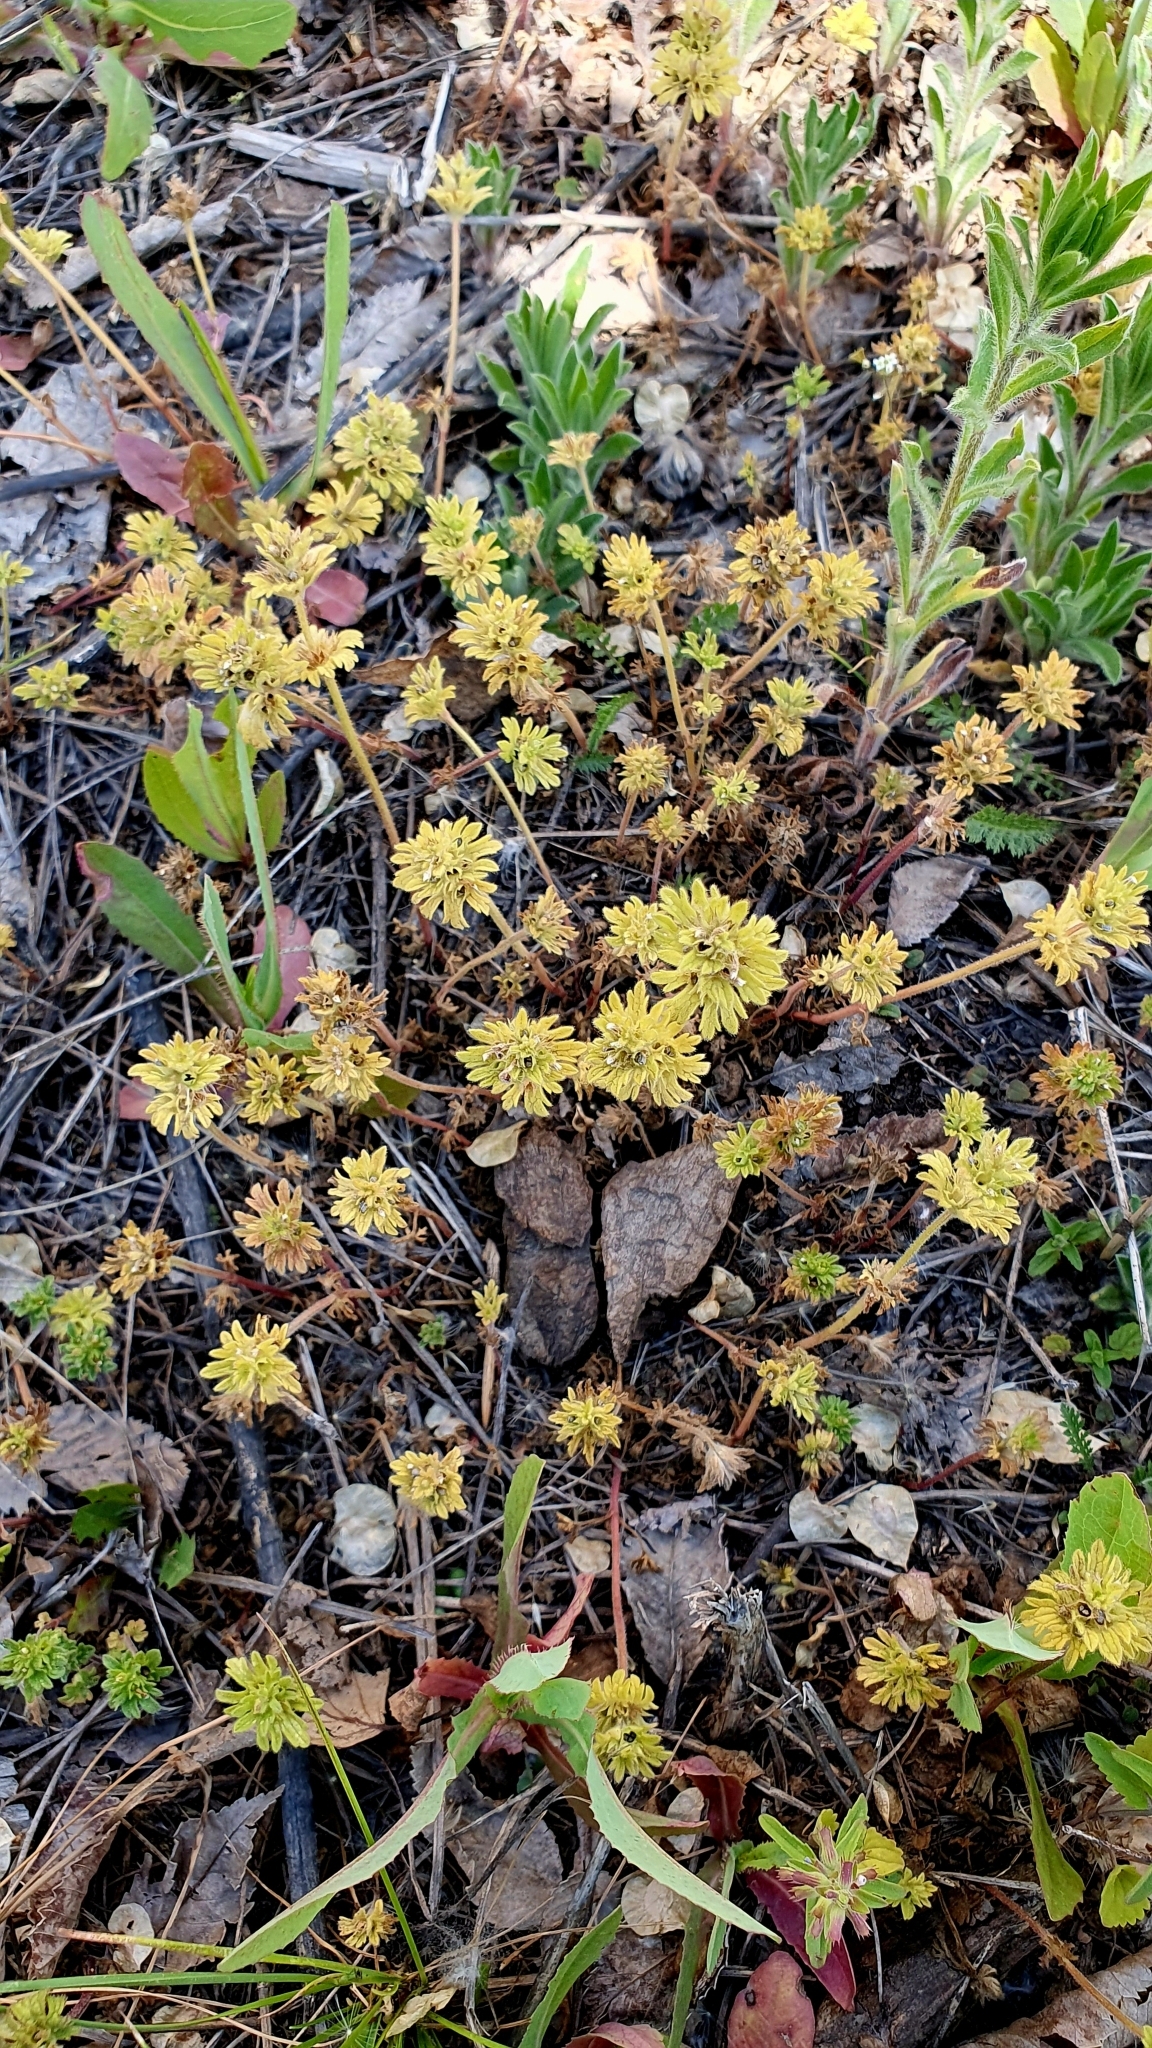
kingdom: Plantae
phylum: Tracheophyta
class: Magnoliopsida
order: Lamiales
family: Lamiaceae
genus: Lamium
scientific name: Lamium amplexicaule
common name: Henbit dead-nettle
